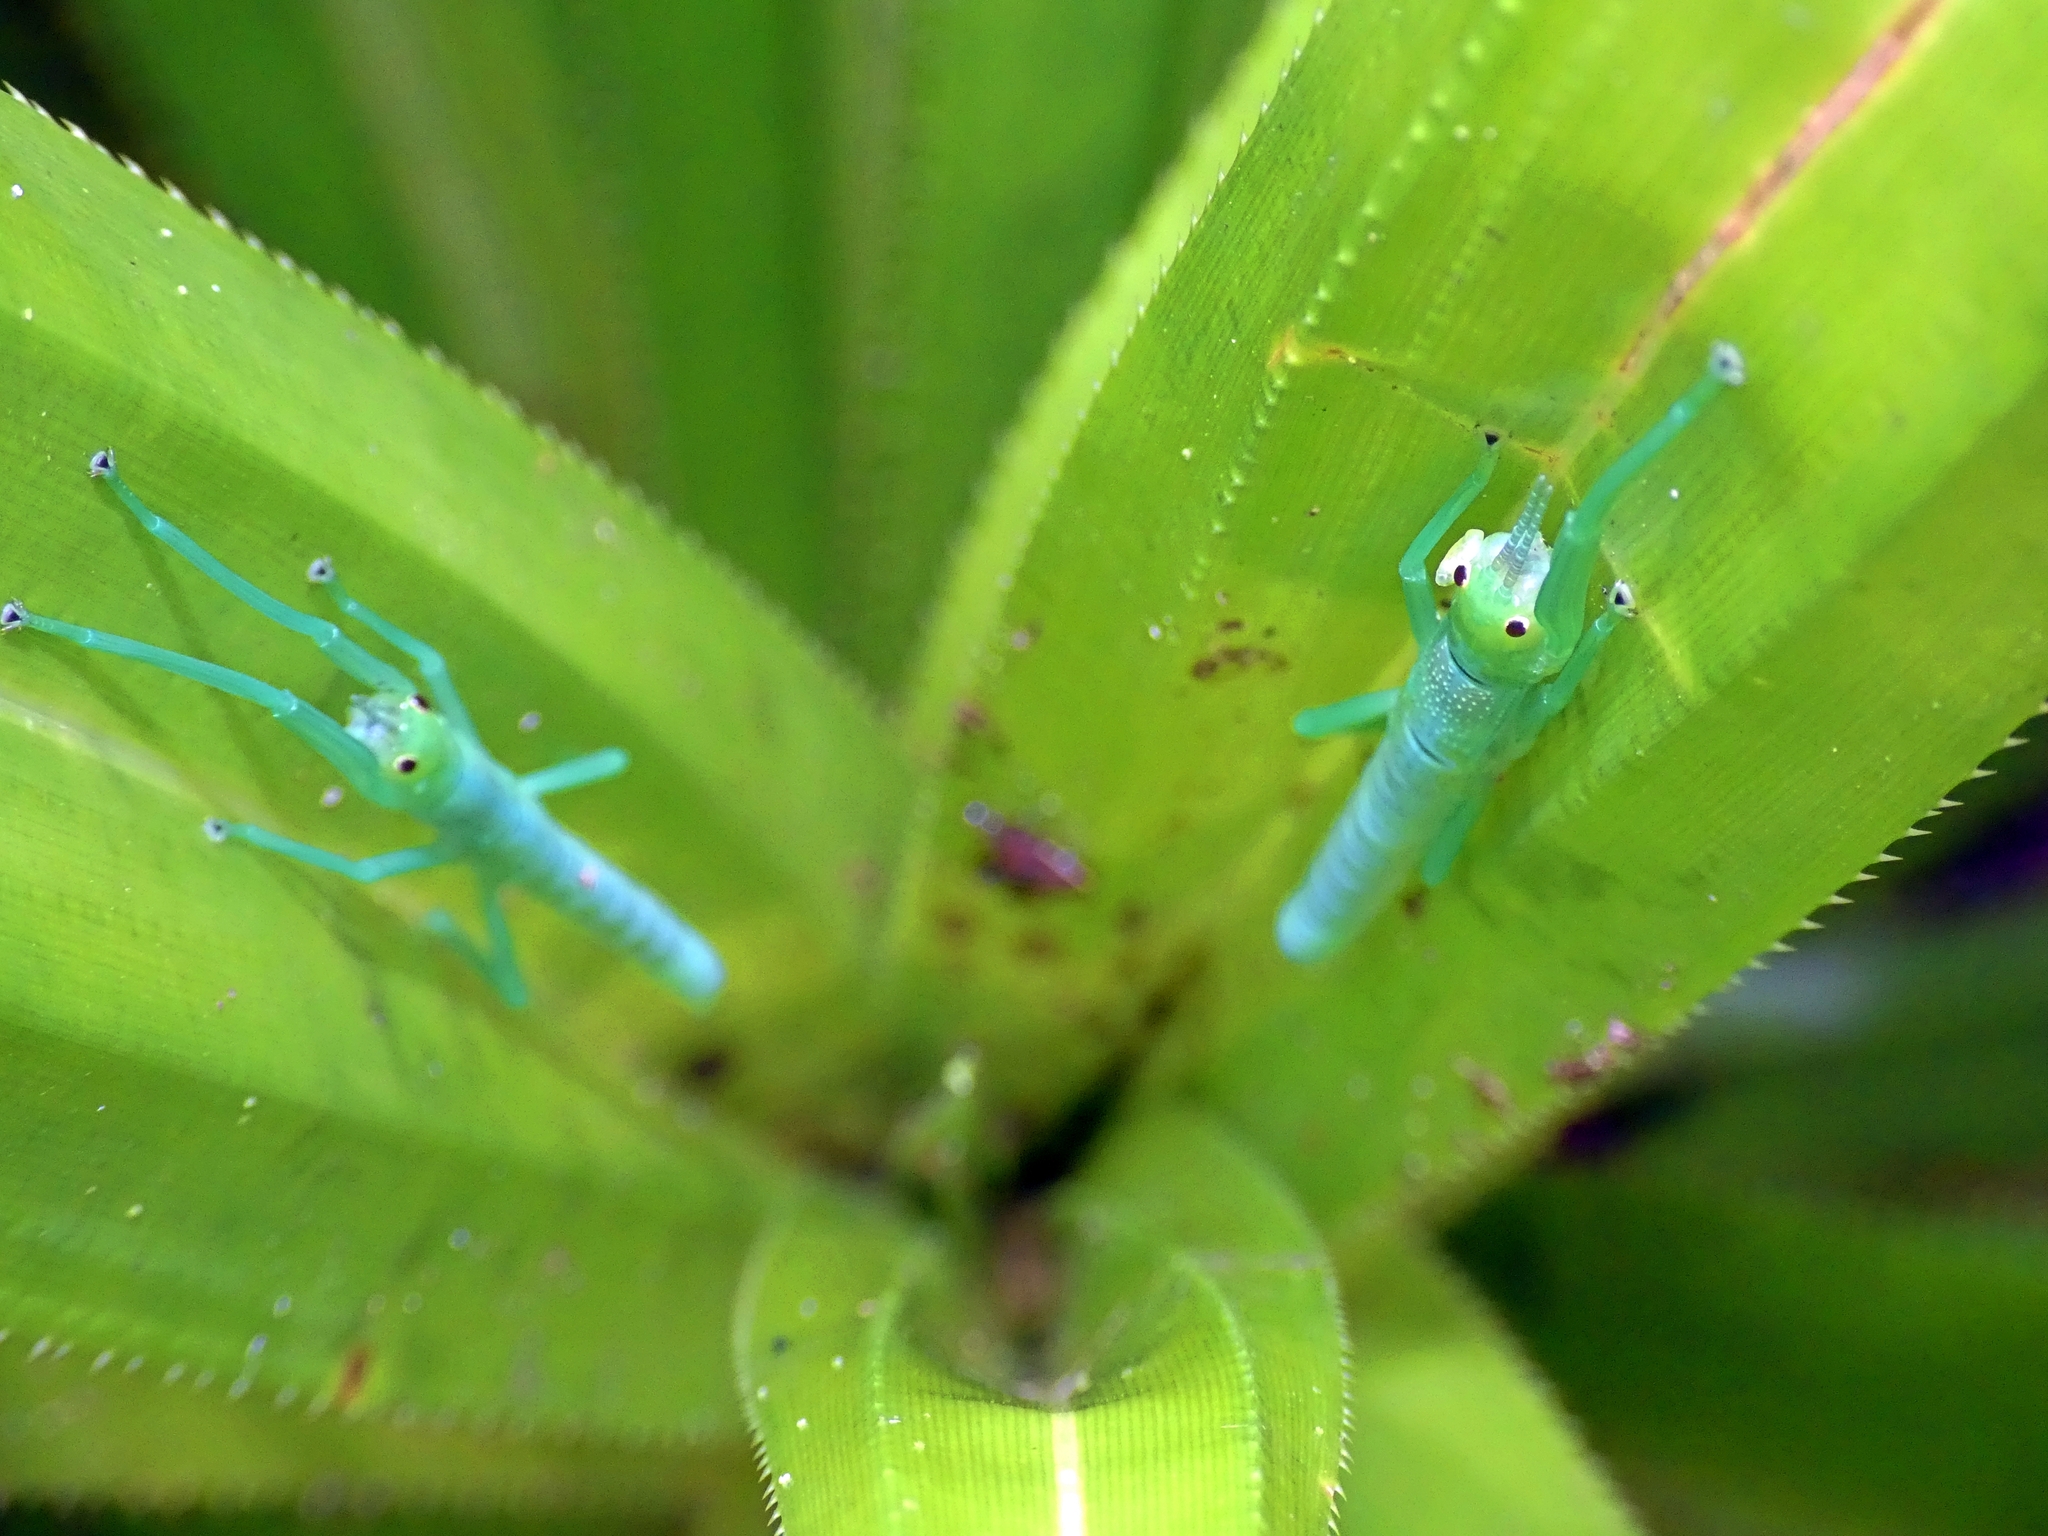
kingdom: Animalia
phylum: Arthropoda
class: Insecta
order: Phasmida
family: Phasmatidae
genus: Megacrania
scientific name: Megacrania batesii
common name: Peppermint stick-insect
